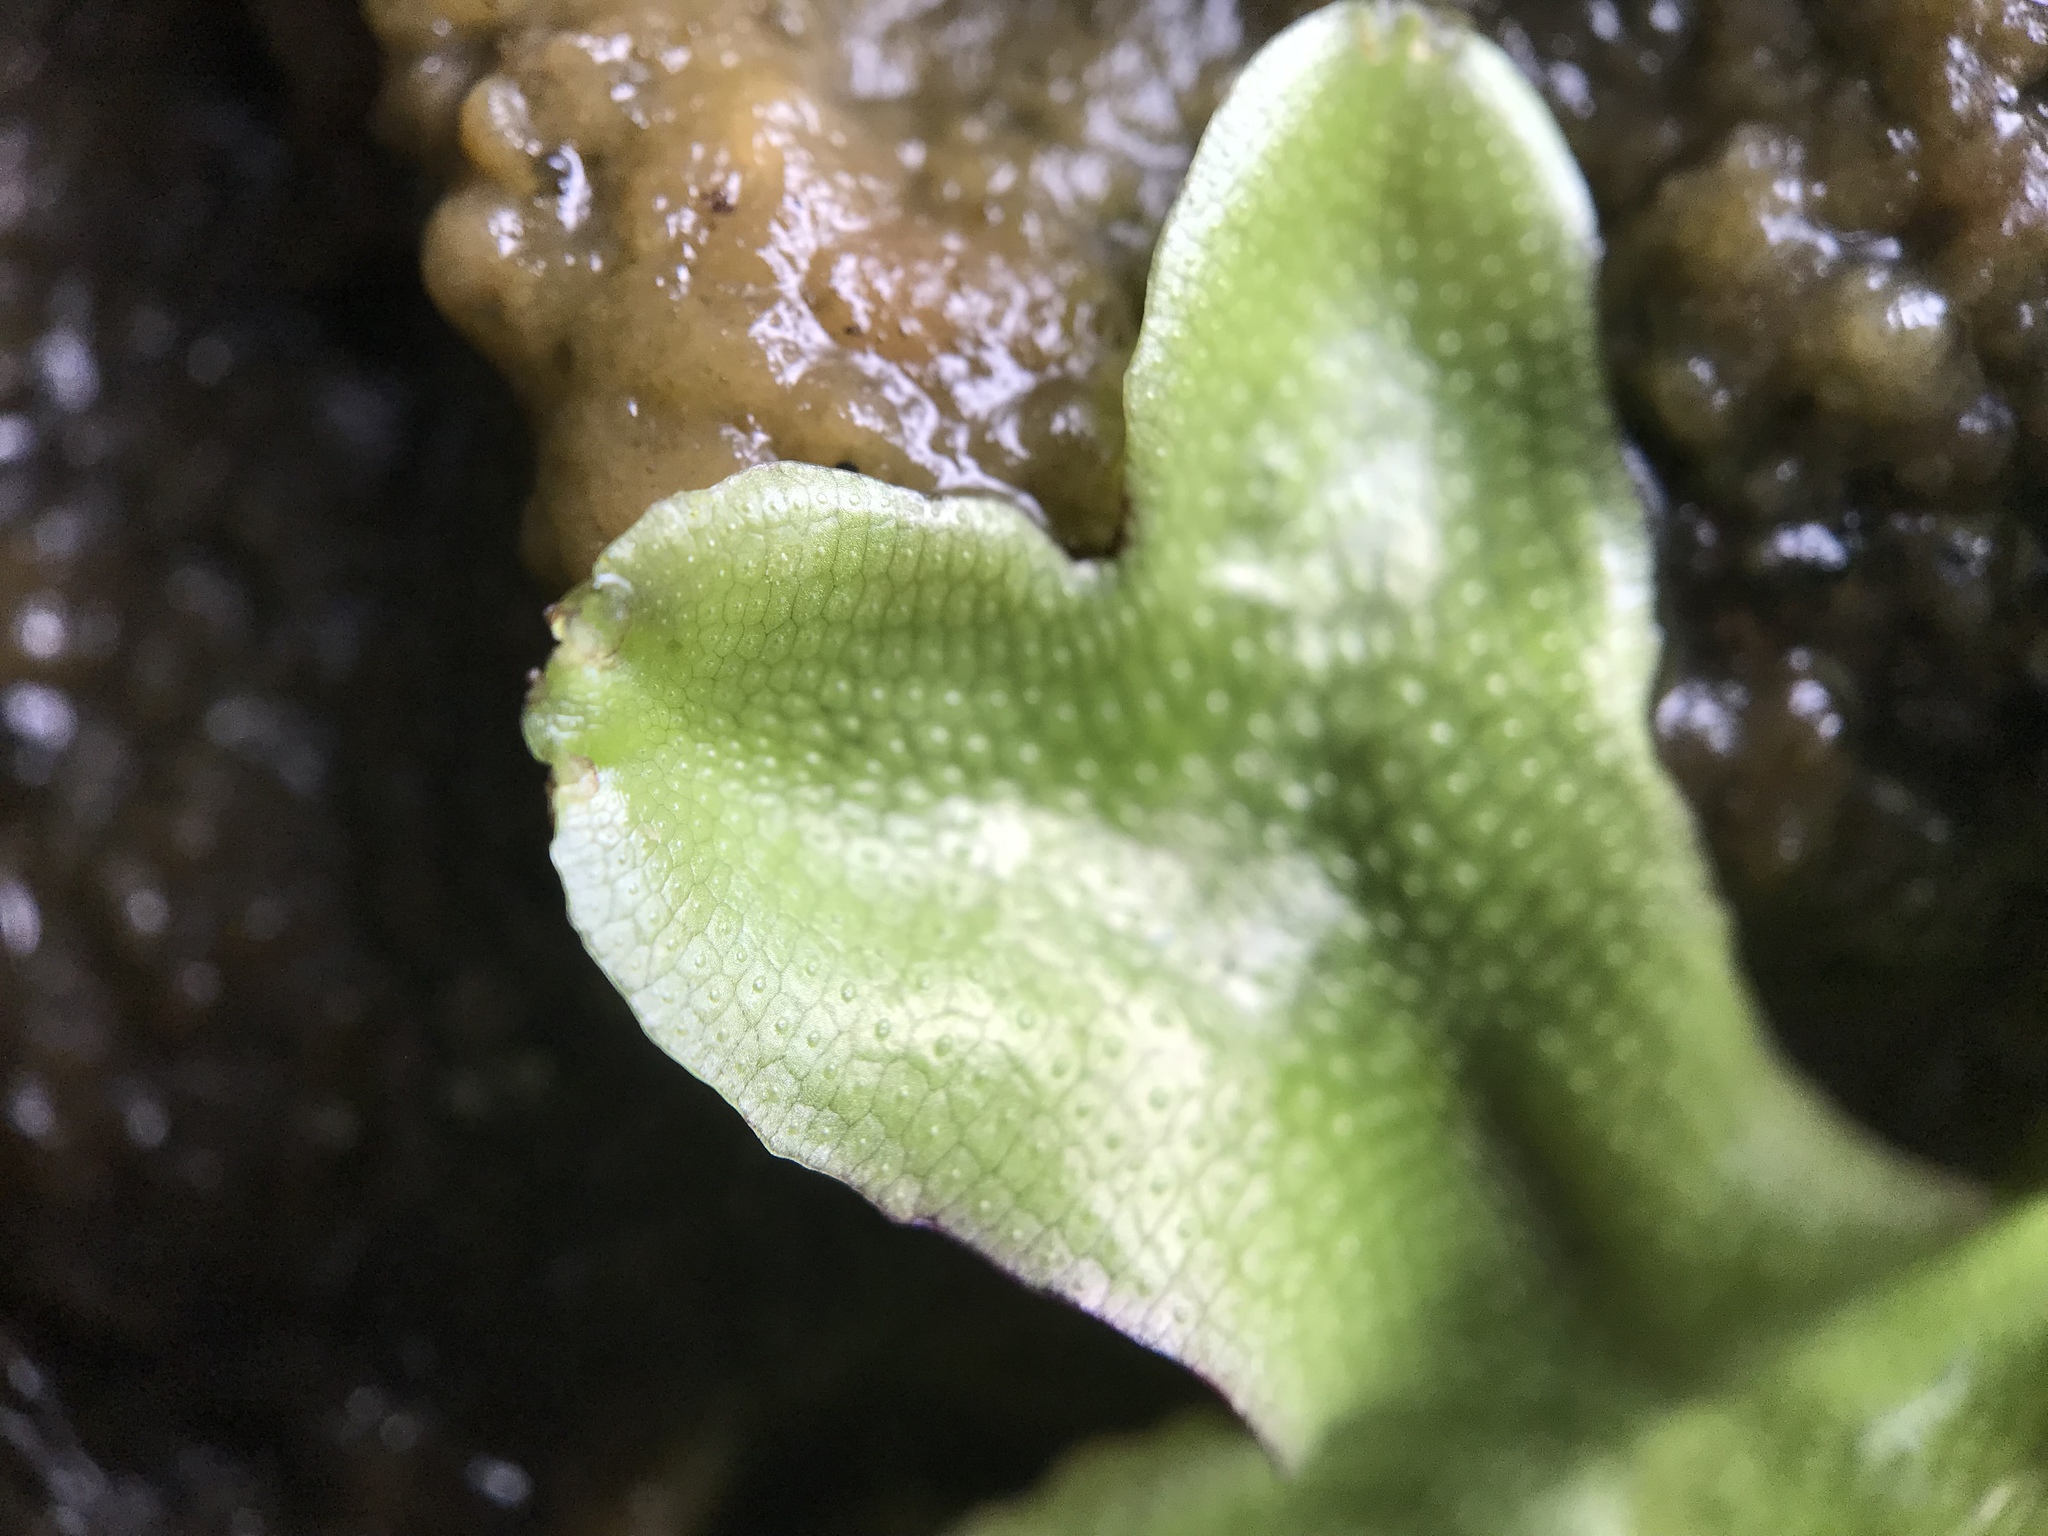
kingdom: Plantae
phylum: Marchantiophyta
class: Marchantiopsida
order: Marchantiales
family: Conocephalaceae
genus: Conocephalum
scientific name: Conocephalum conicum
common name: Great scented liverwort
